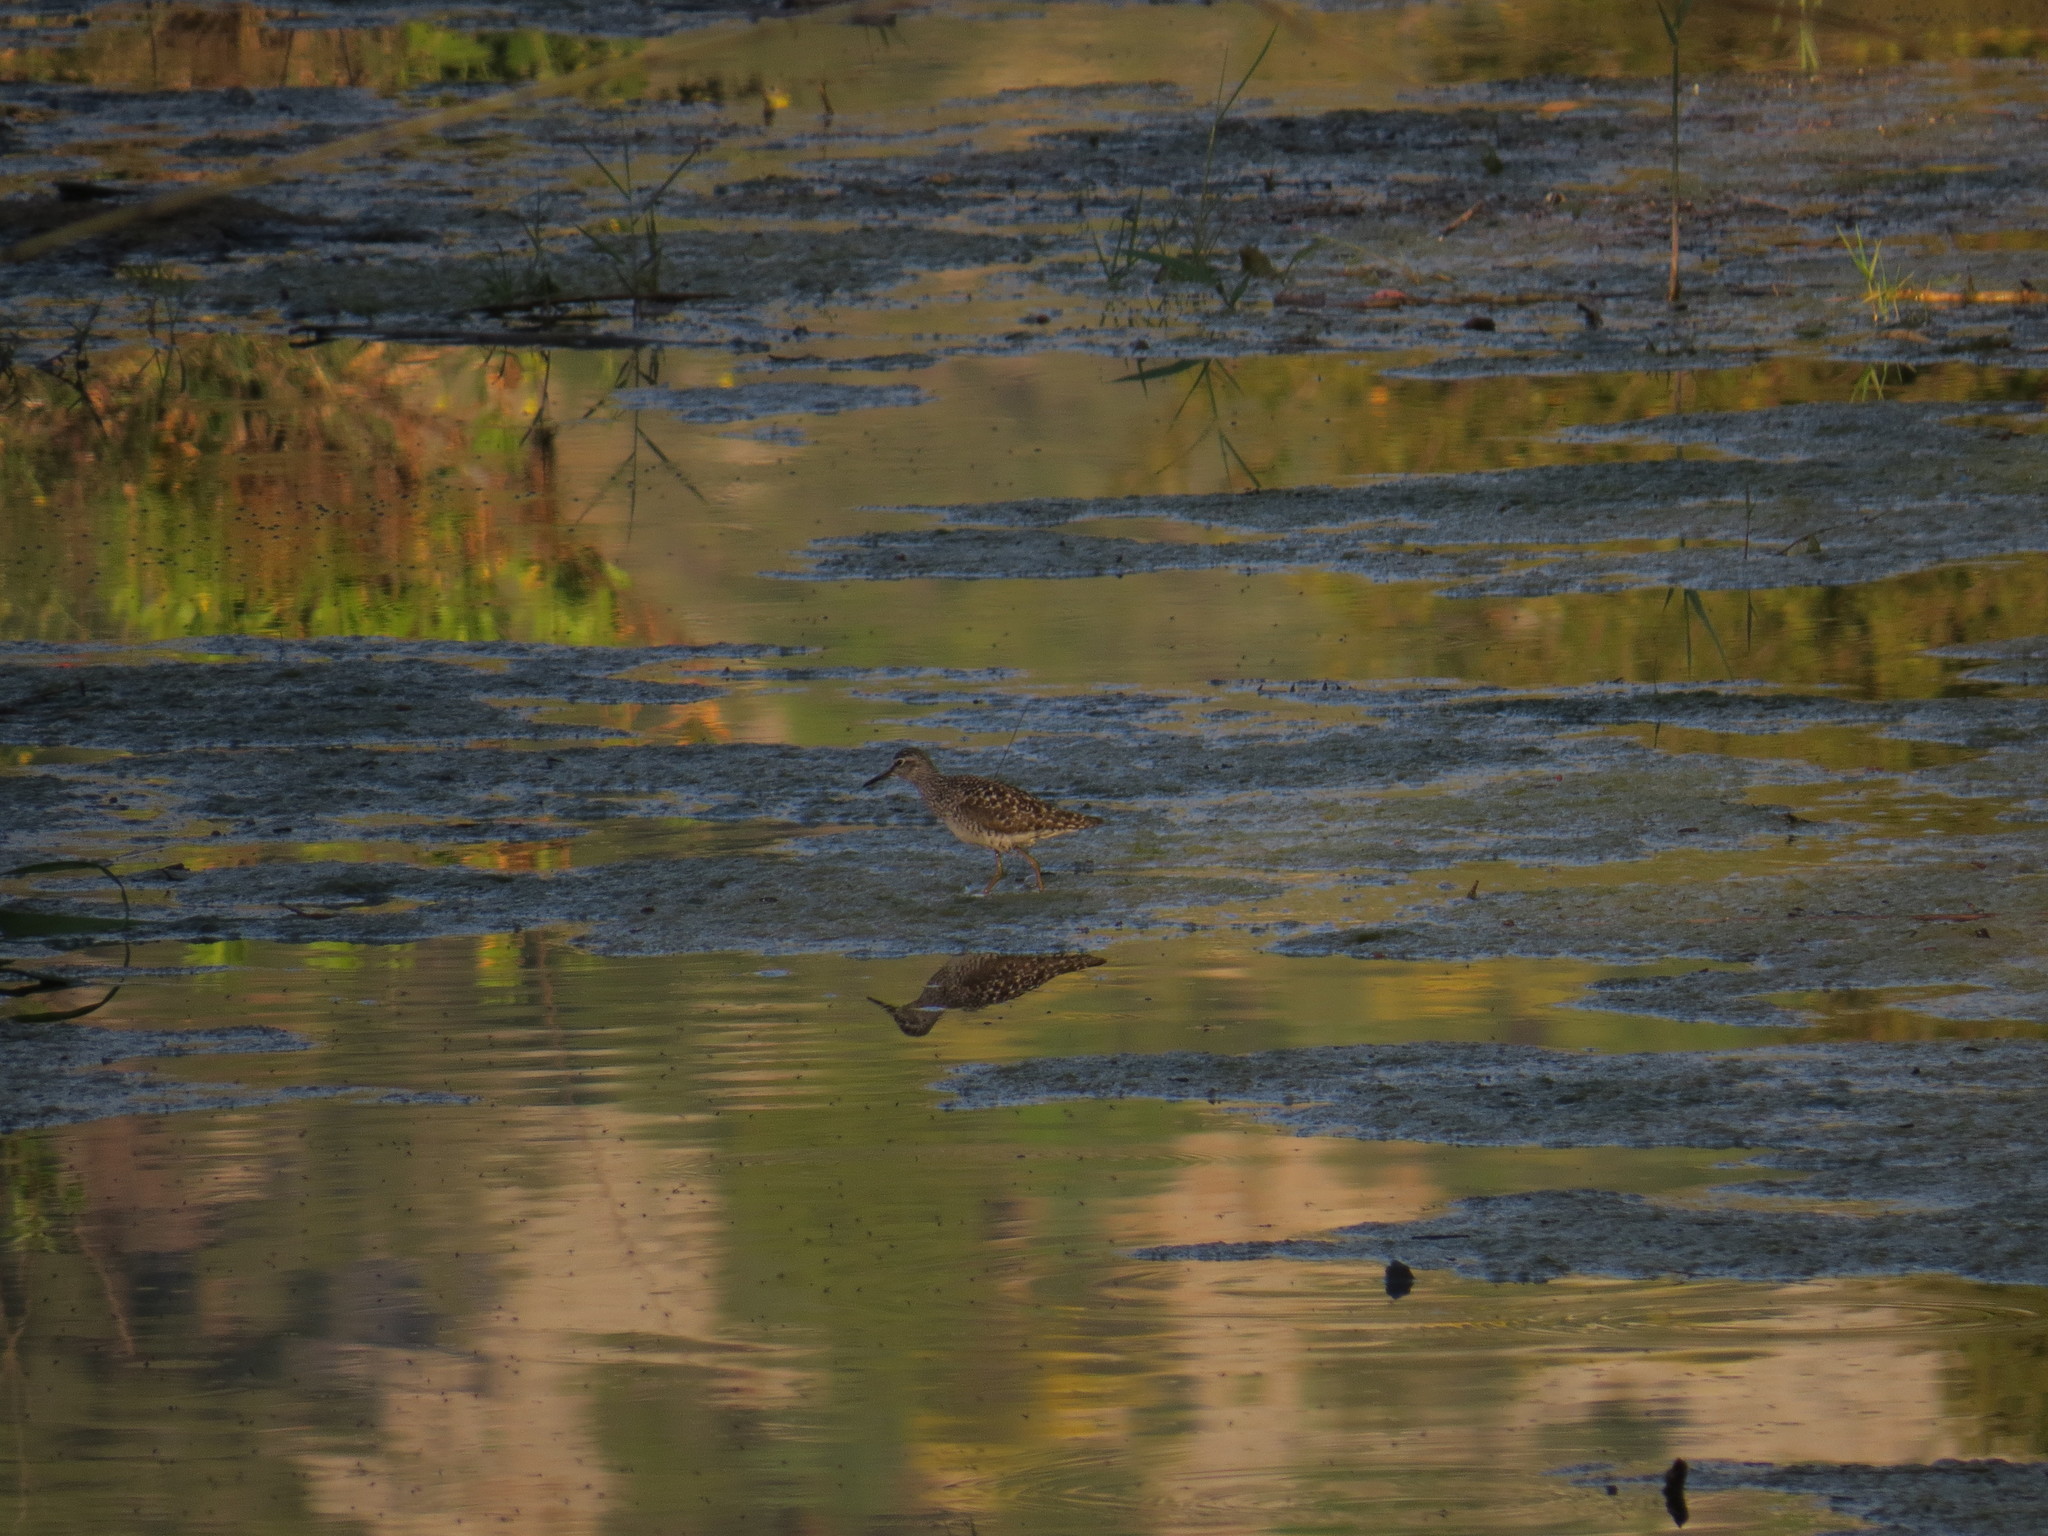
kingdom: Animalia
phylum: Chordata
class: Aves
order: Charadriiformes
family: Scolopacidae
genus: Tringa
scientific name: Tringa glareola
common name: Wood sandpiper
